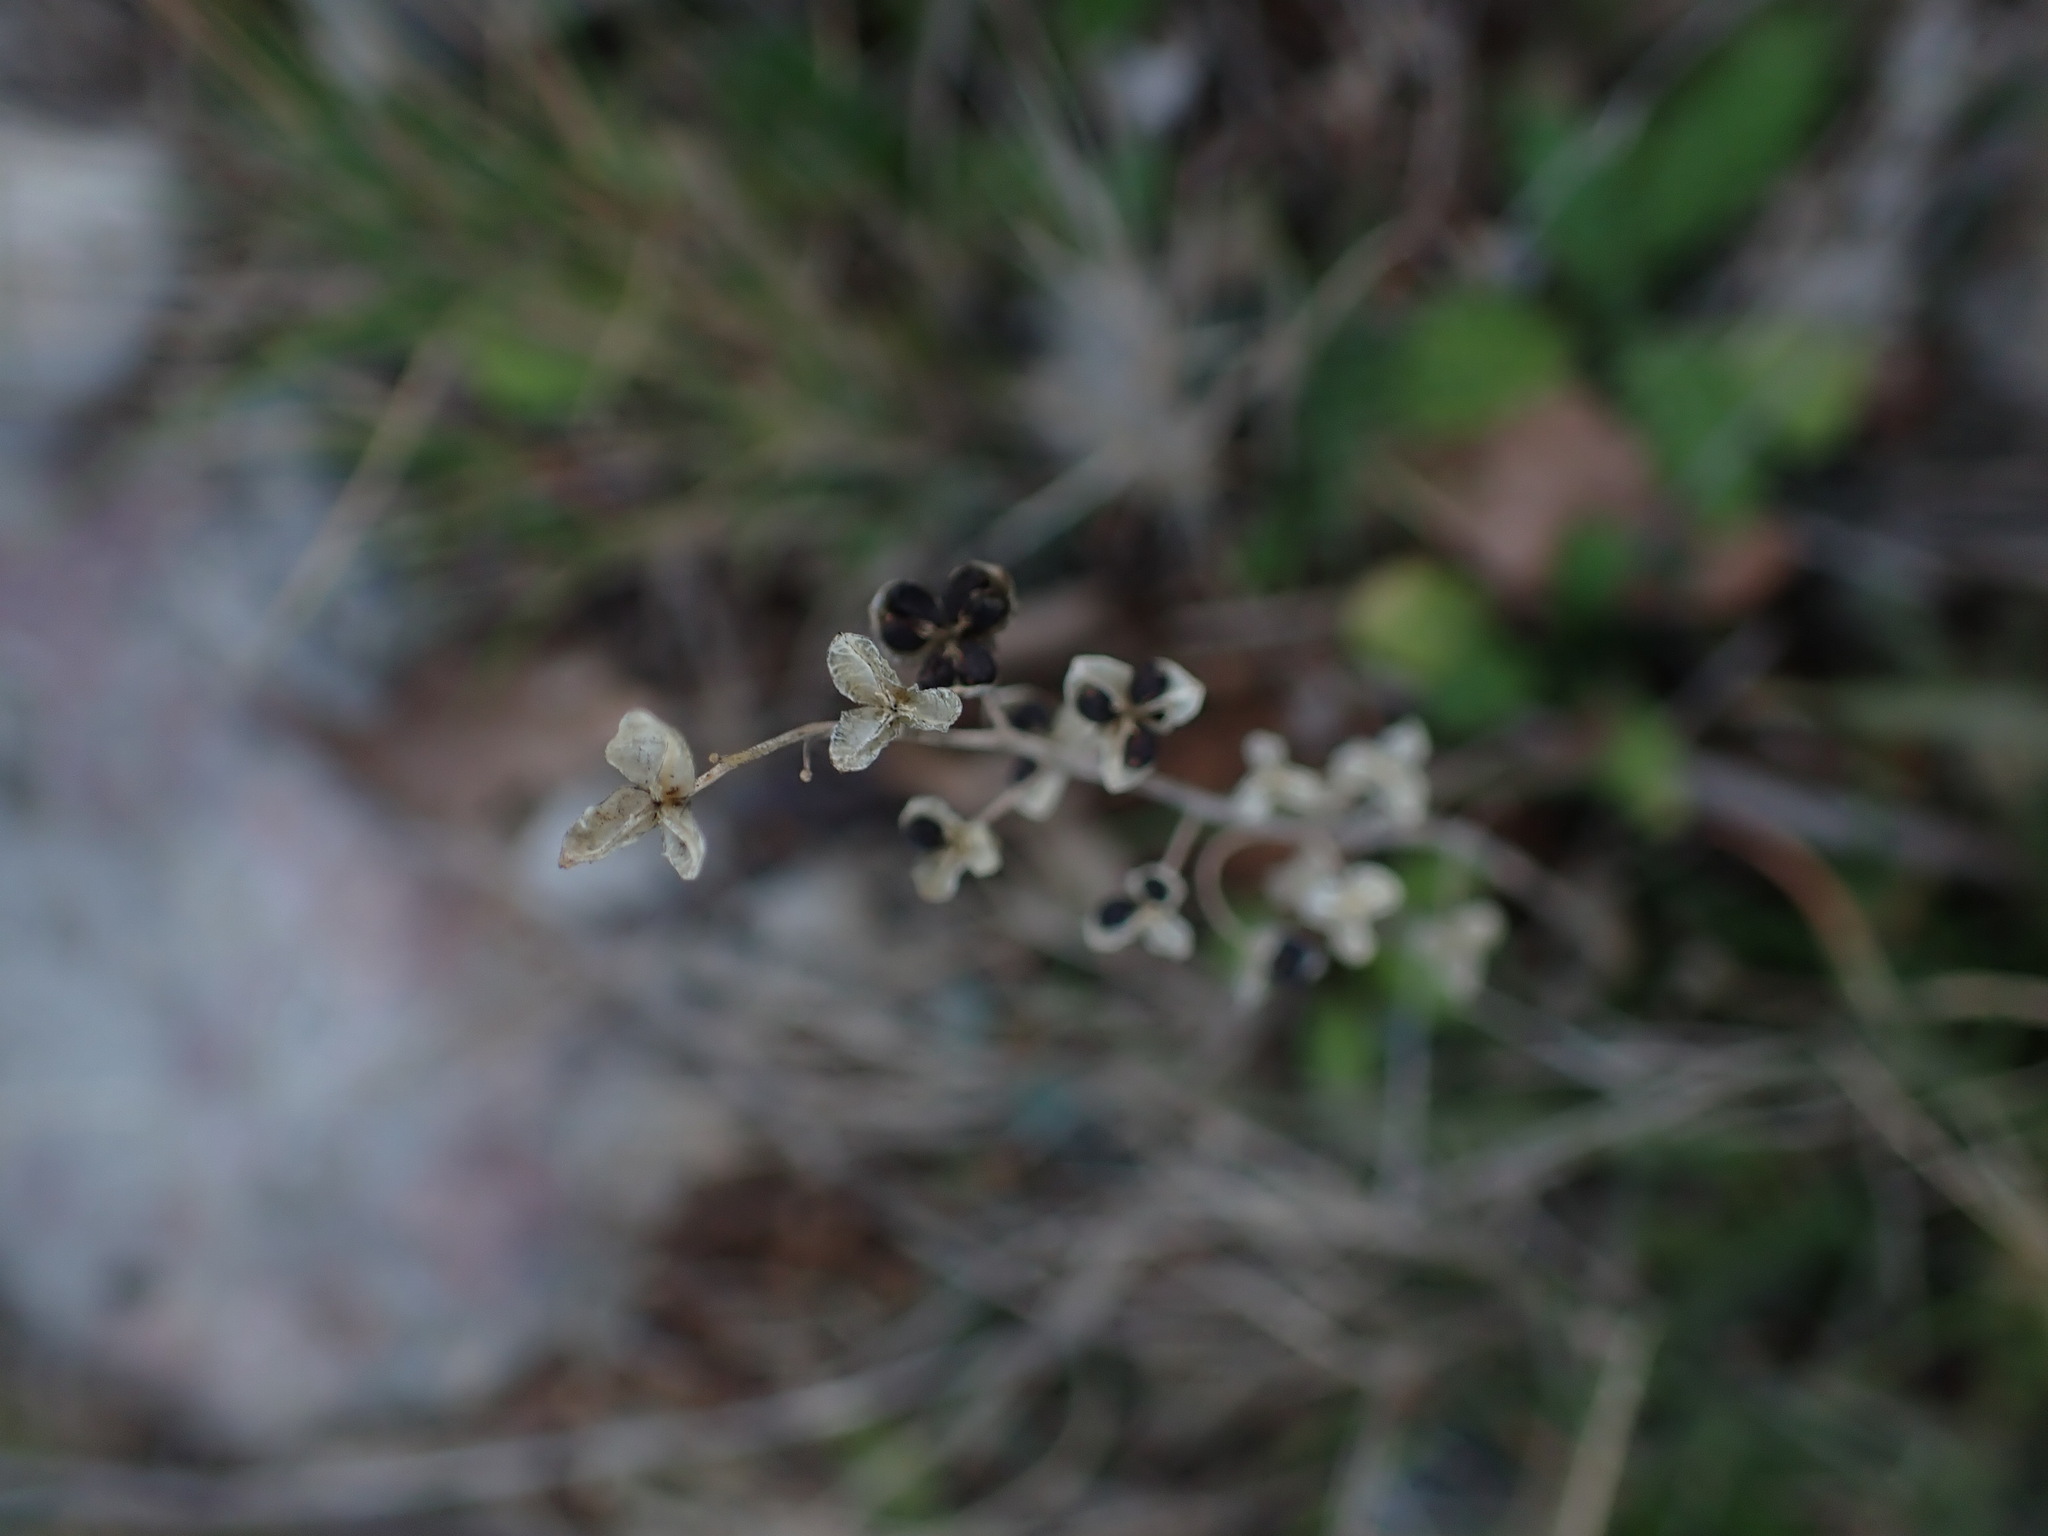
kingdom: Plantae
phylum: Tracheophyta
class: Liliopsida
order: Asparagales
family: Asparagaceae
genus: Prospero
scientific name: Prospero autumnale
